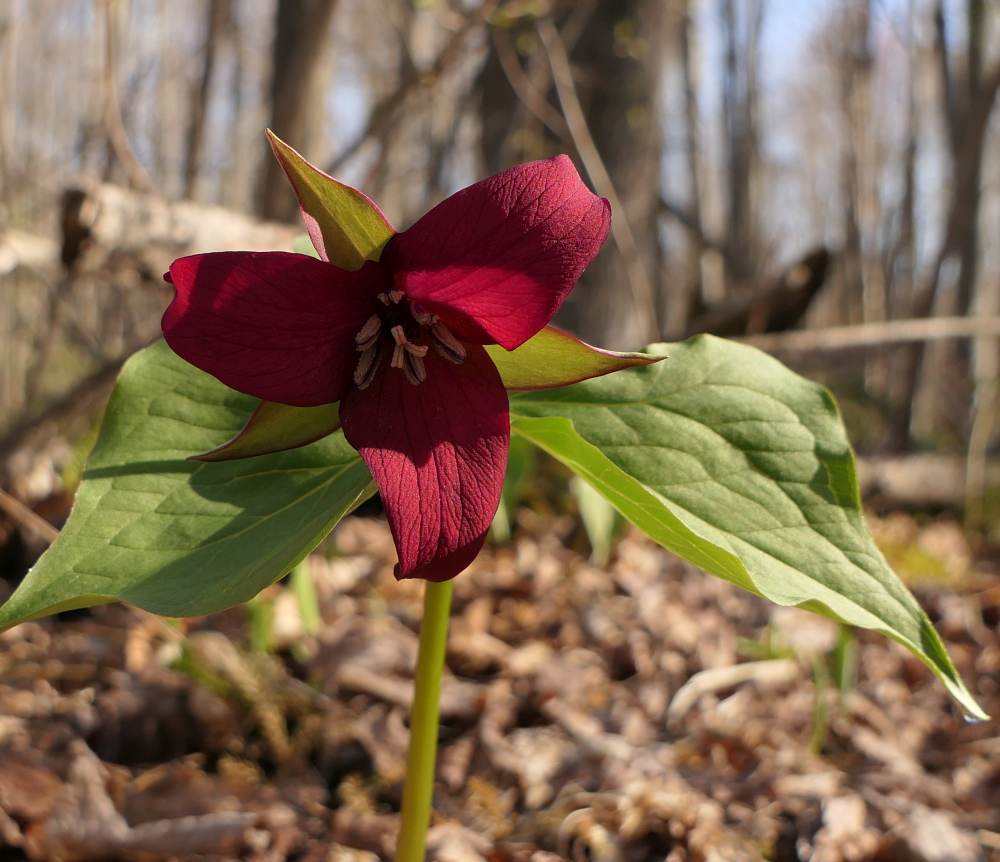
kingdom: Plantae
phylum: Tracheophyta
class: Liliopsida
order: Liliales
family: Melanthiaceae
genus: Trillium
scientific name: Trillium erectum
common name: Purple trillium
